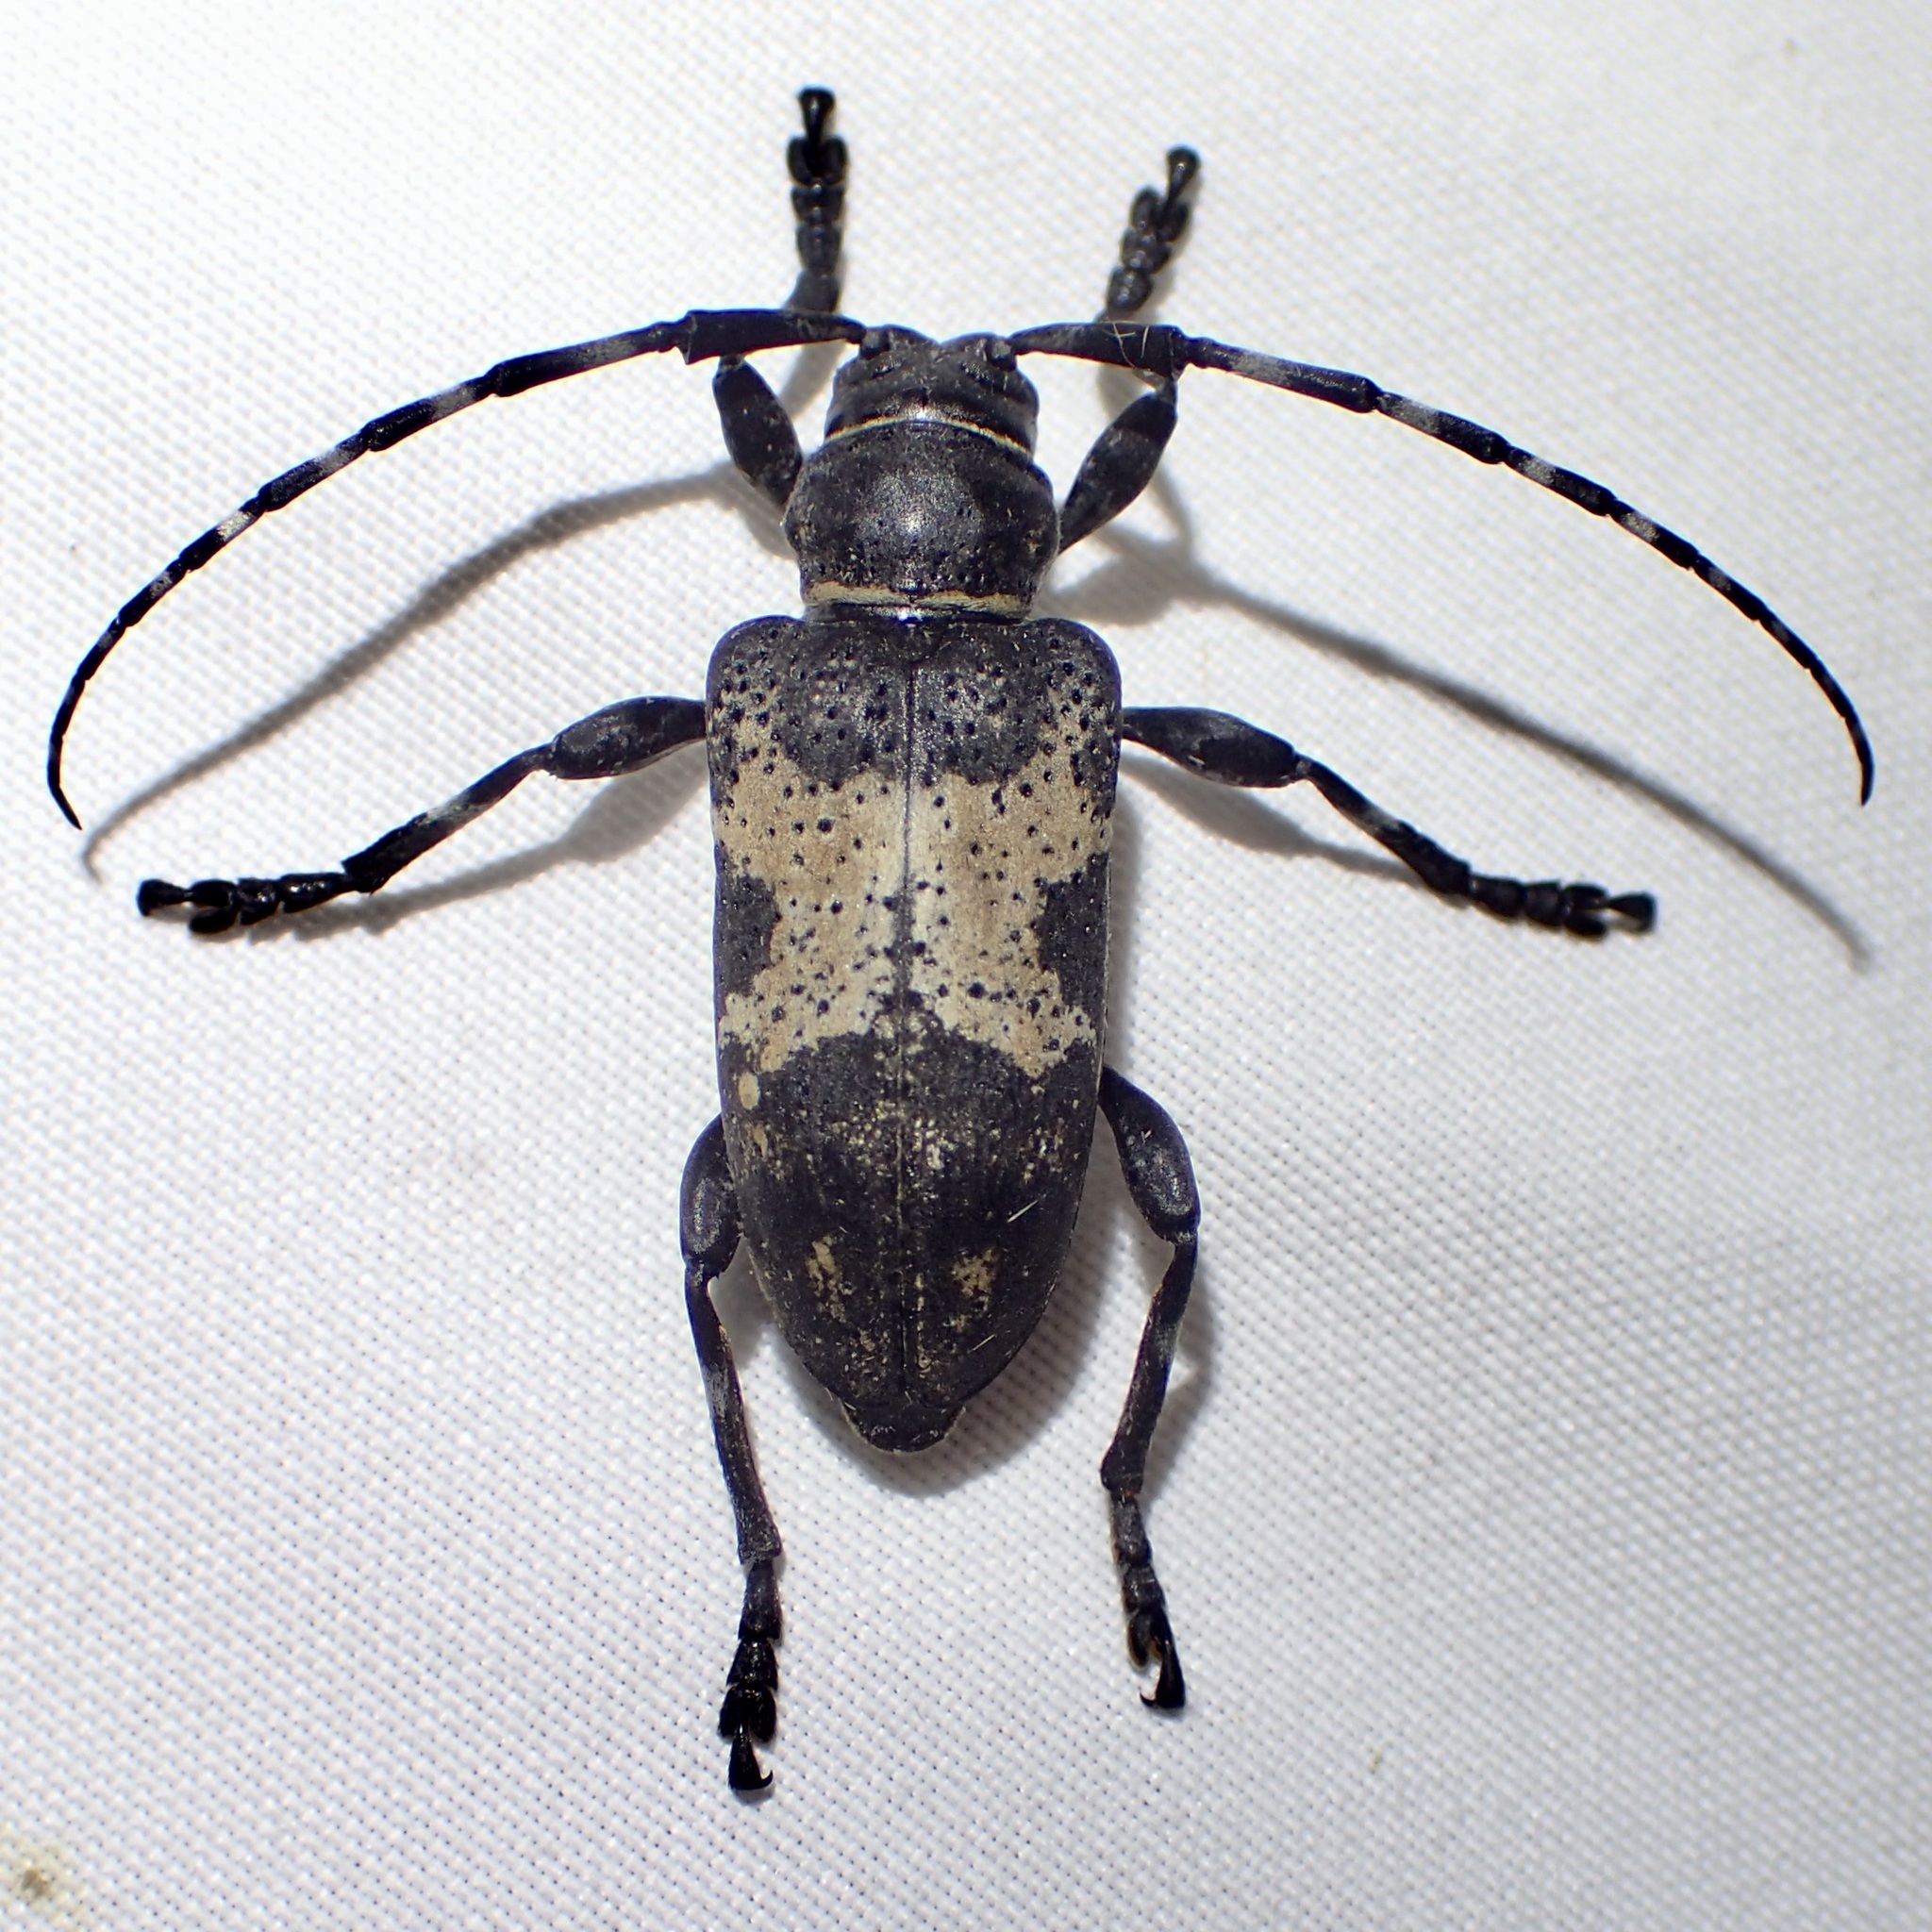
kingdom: Animalia
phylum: Arthropoda
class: Insecta
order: Coleoptera
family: Cerambycidae
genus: Coenopoeus
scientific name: Coenopoeus palmeri
